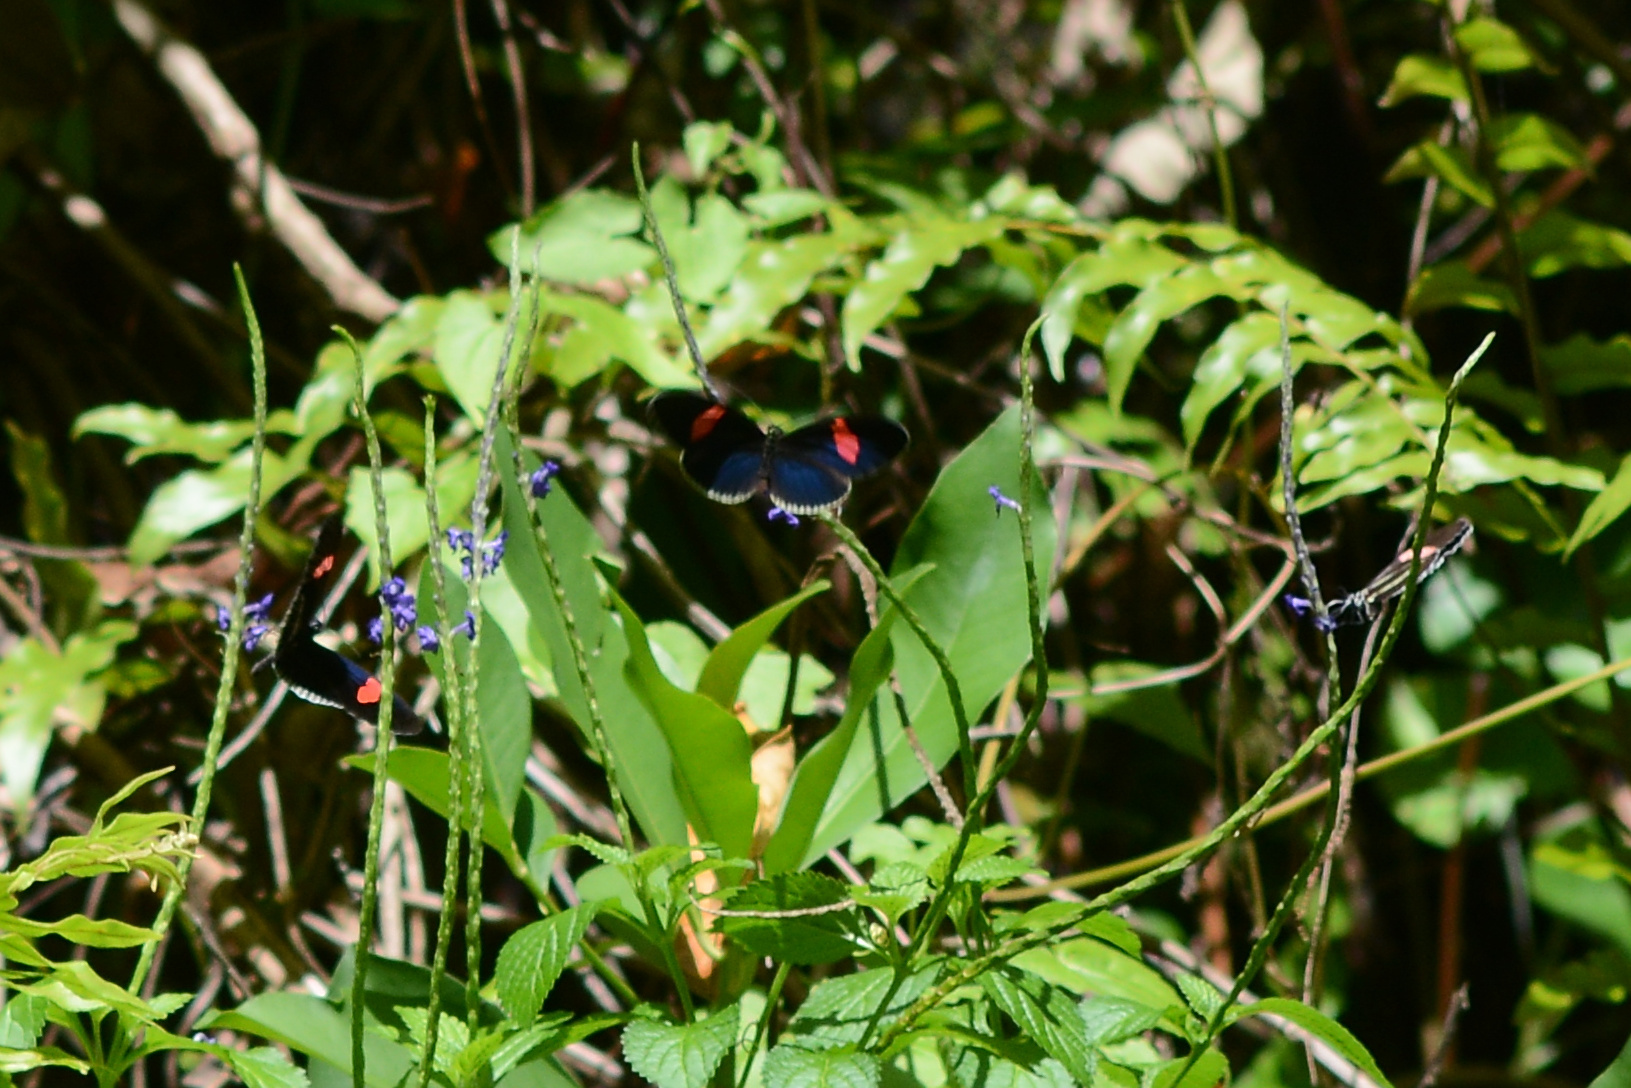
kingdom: Animalia
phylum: Arthropoda
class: Insecta
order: Lepidoptera
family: Nymphalidae
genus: Heliconius
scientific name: Heliconius erato
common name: Common patch longwing
